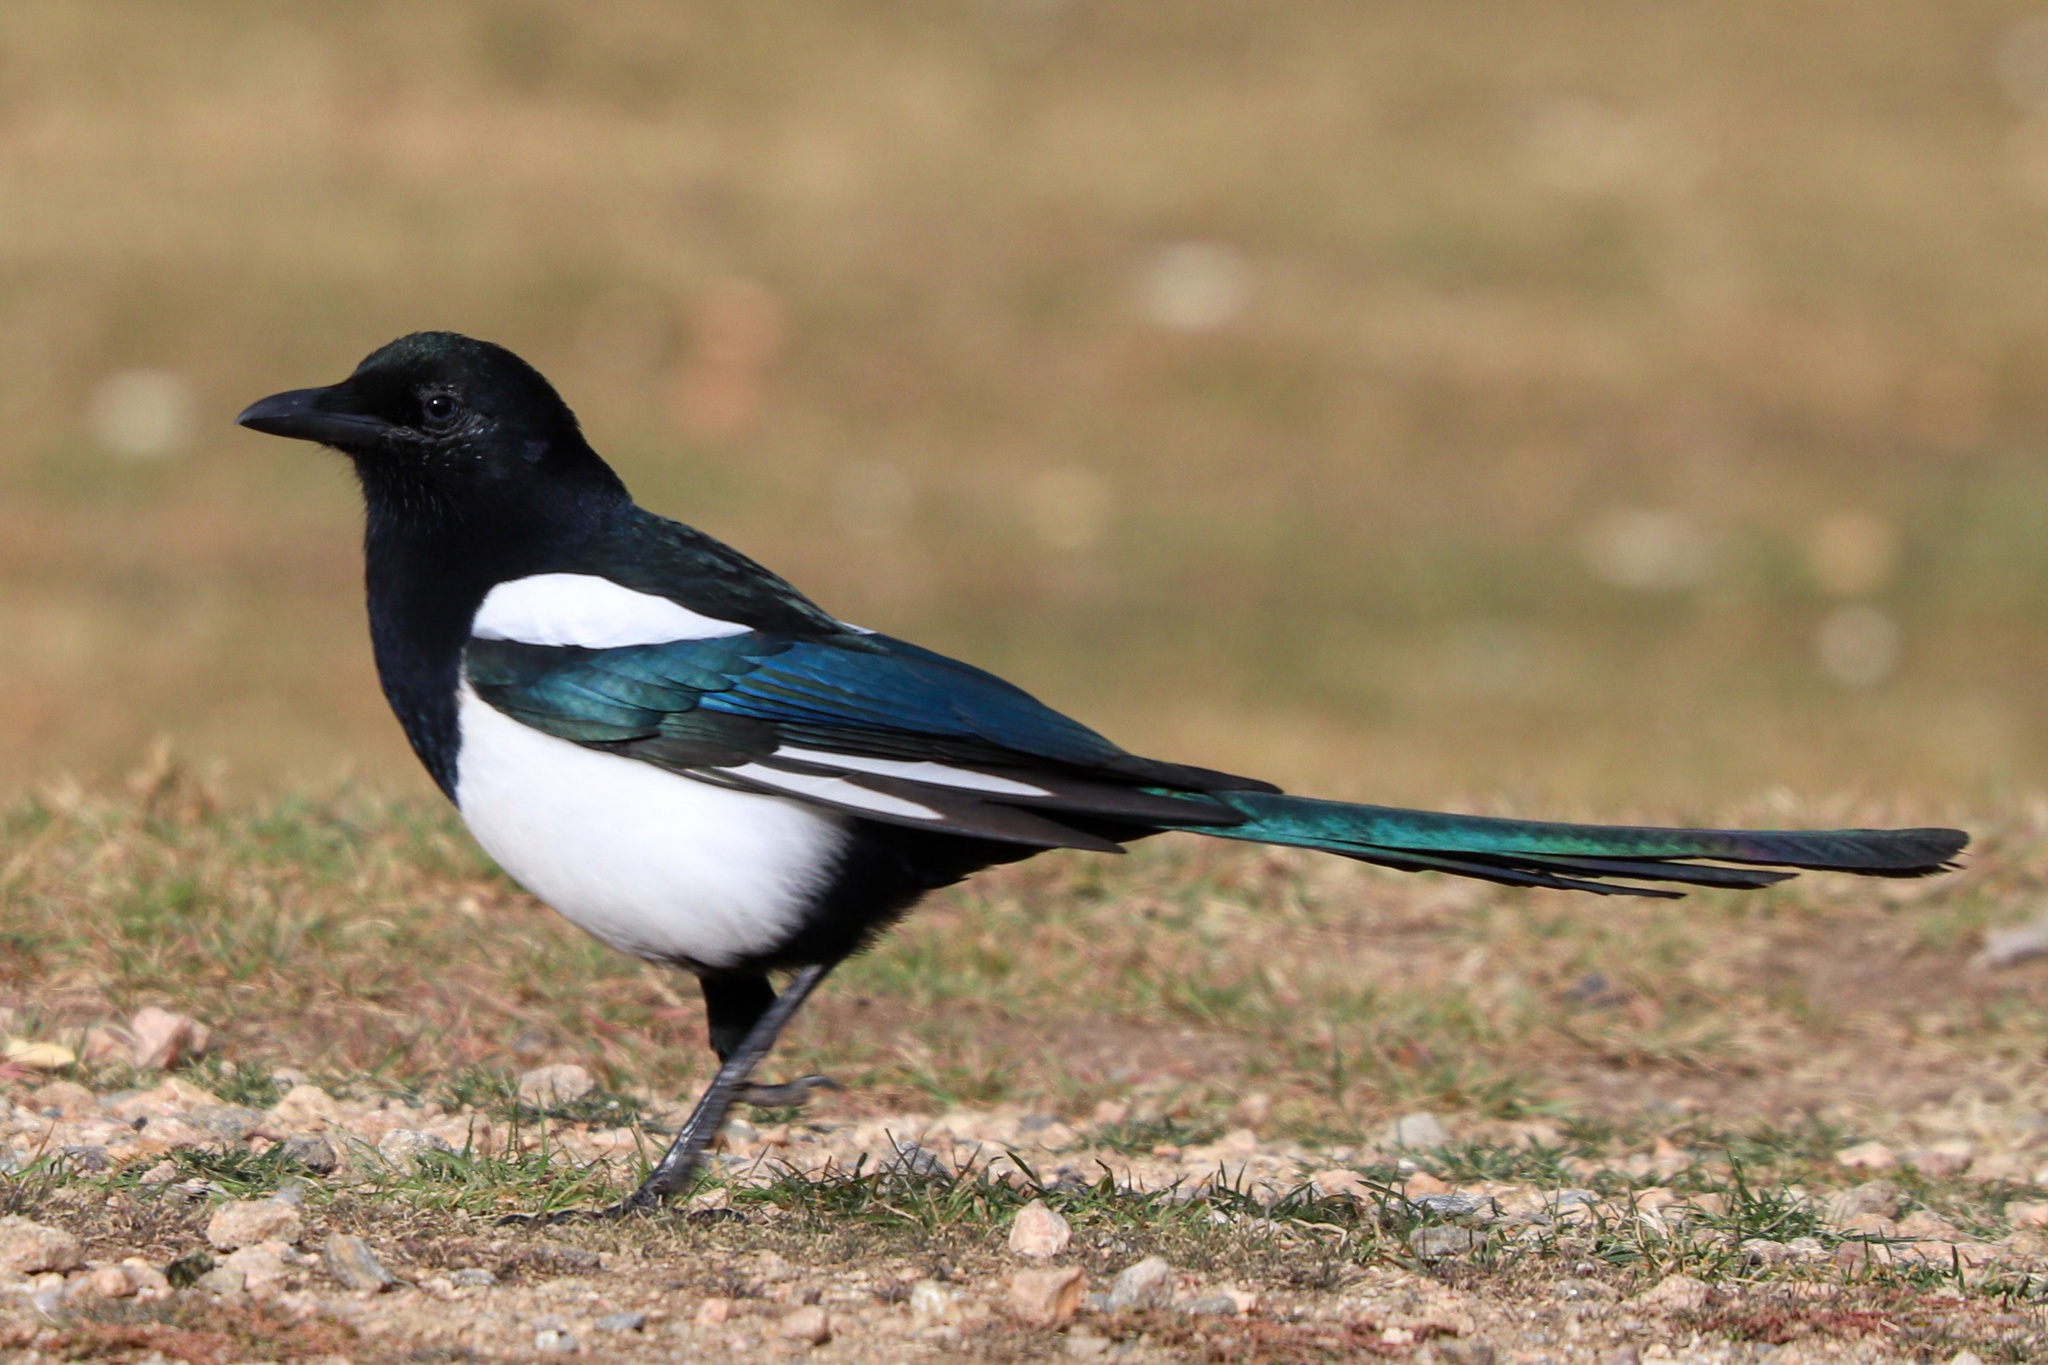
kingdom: Animalia
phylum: Chordata
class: Aves
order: Passeriformes
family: Corvidae
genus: Pica
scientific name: Pica hudsonia
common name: Black-billed magpie
